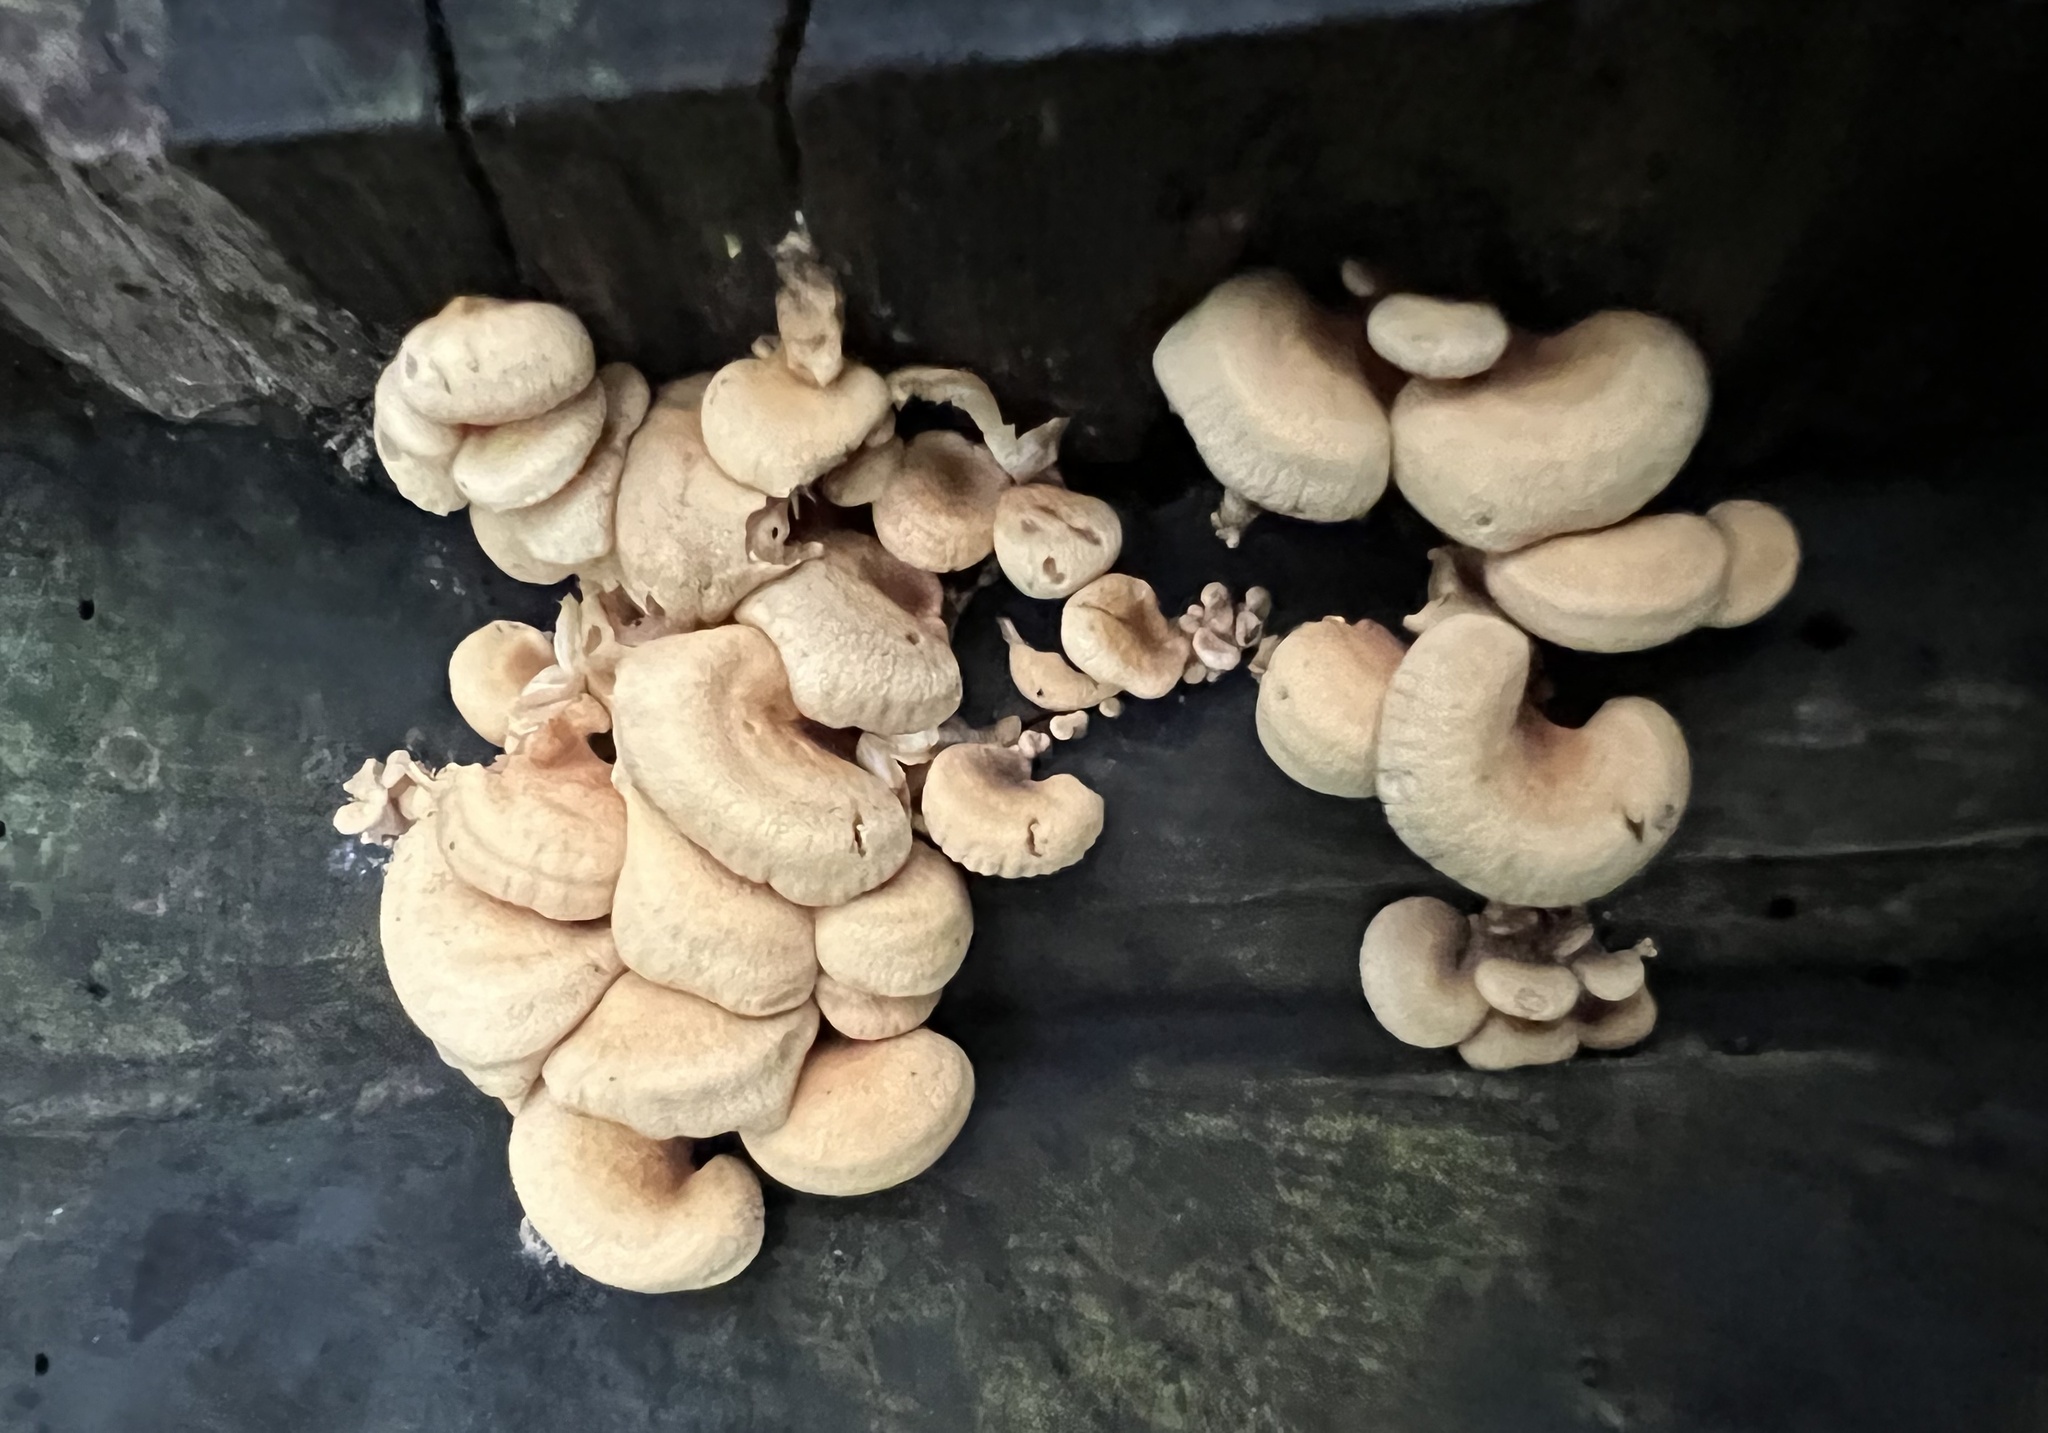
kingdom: Fungi
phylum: Basidiomycota
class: Agaricomycetes
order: Agaricales
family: Mycenaceae
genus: Panellus
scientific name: Panellus stipticus
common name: Bitter oysterling
